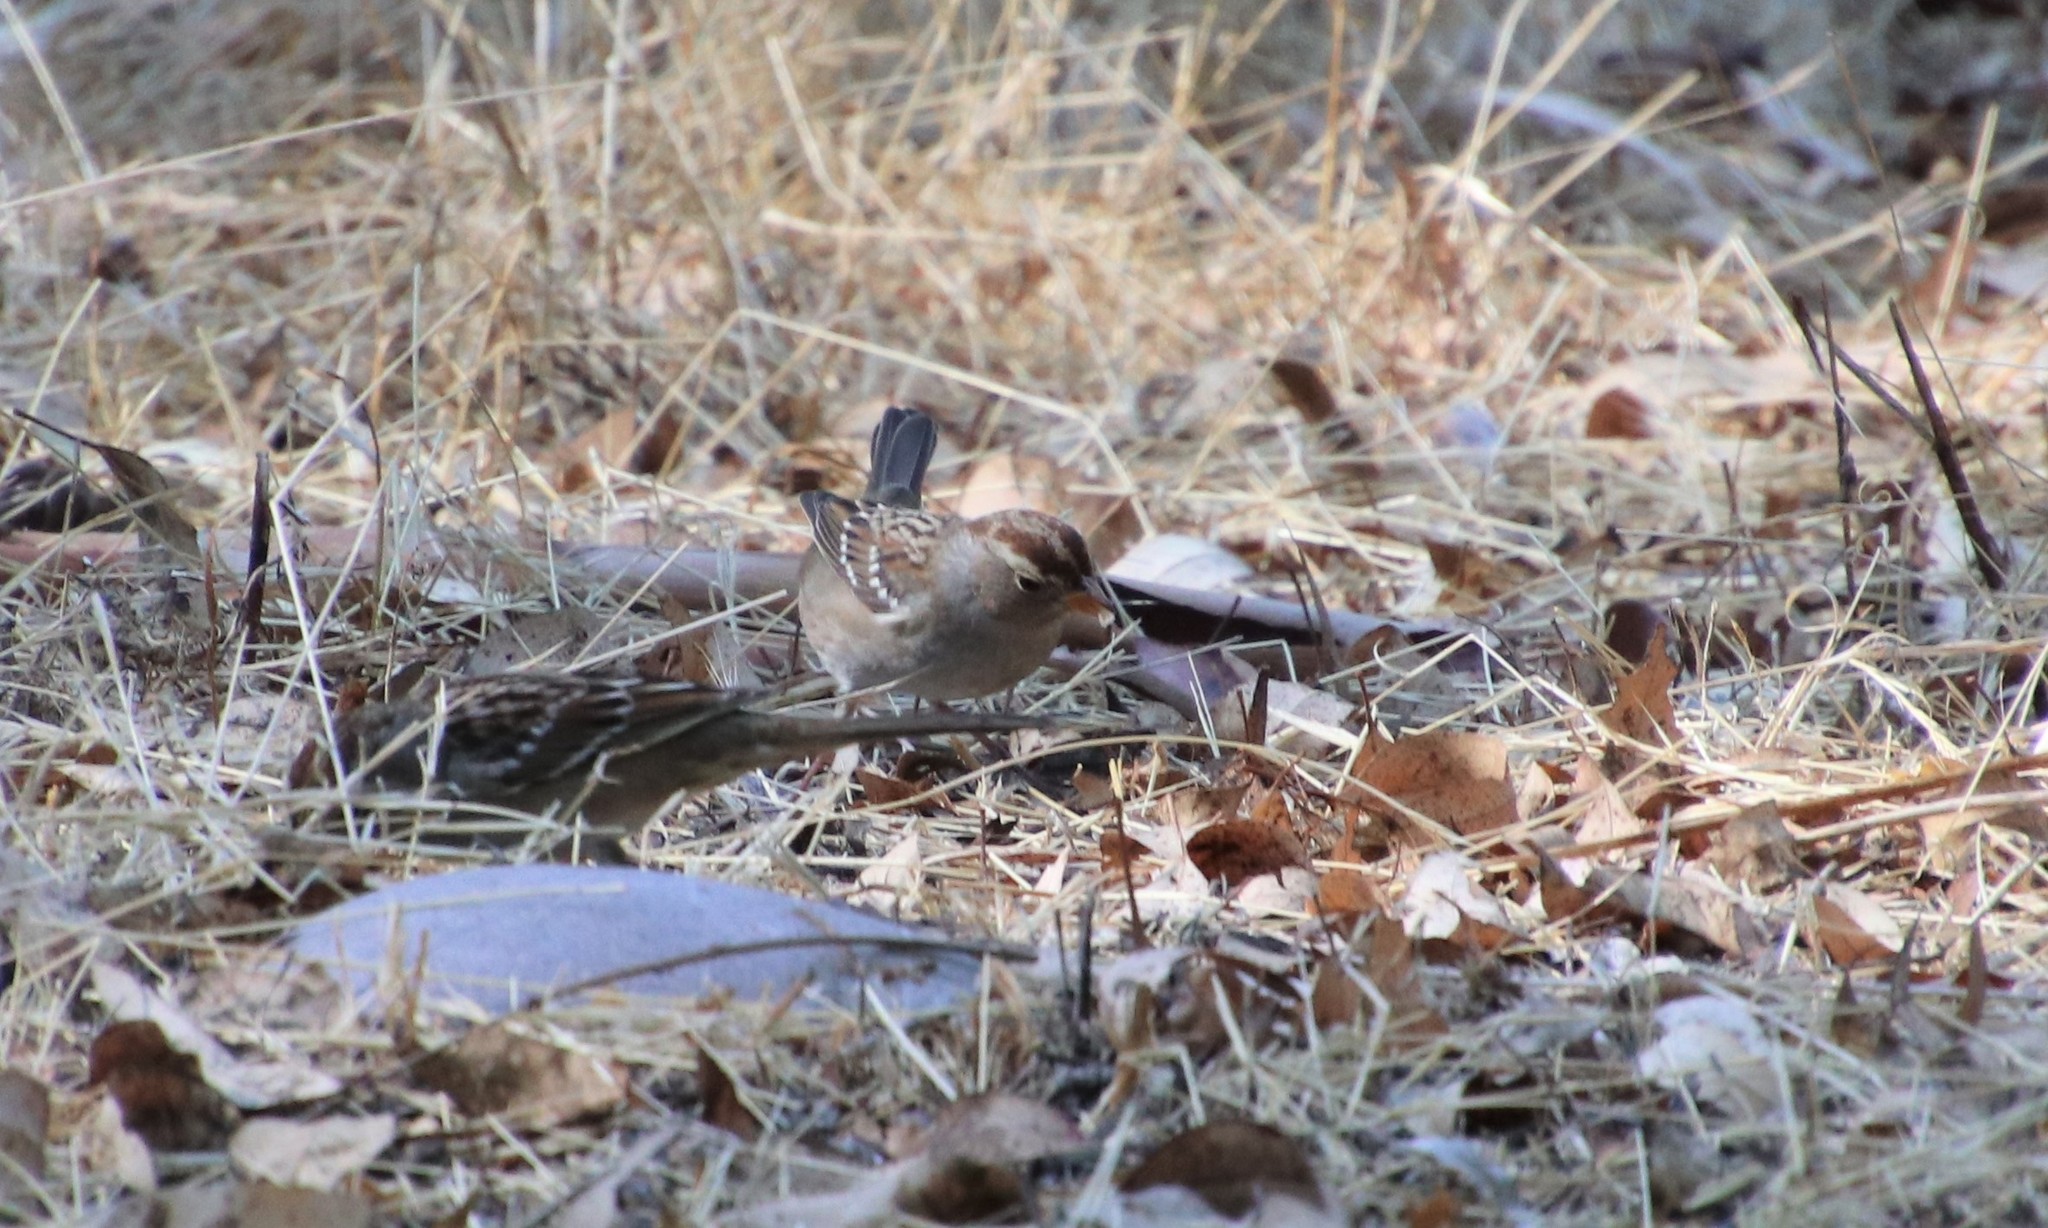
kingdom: Animalia
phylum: Chordata
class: Aves
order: Passeriformes
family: Passerellidae
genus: Zonotrichia
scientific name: Zonotrichia leucophrys
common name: White-crowned sparrow
